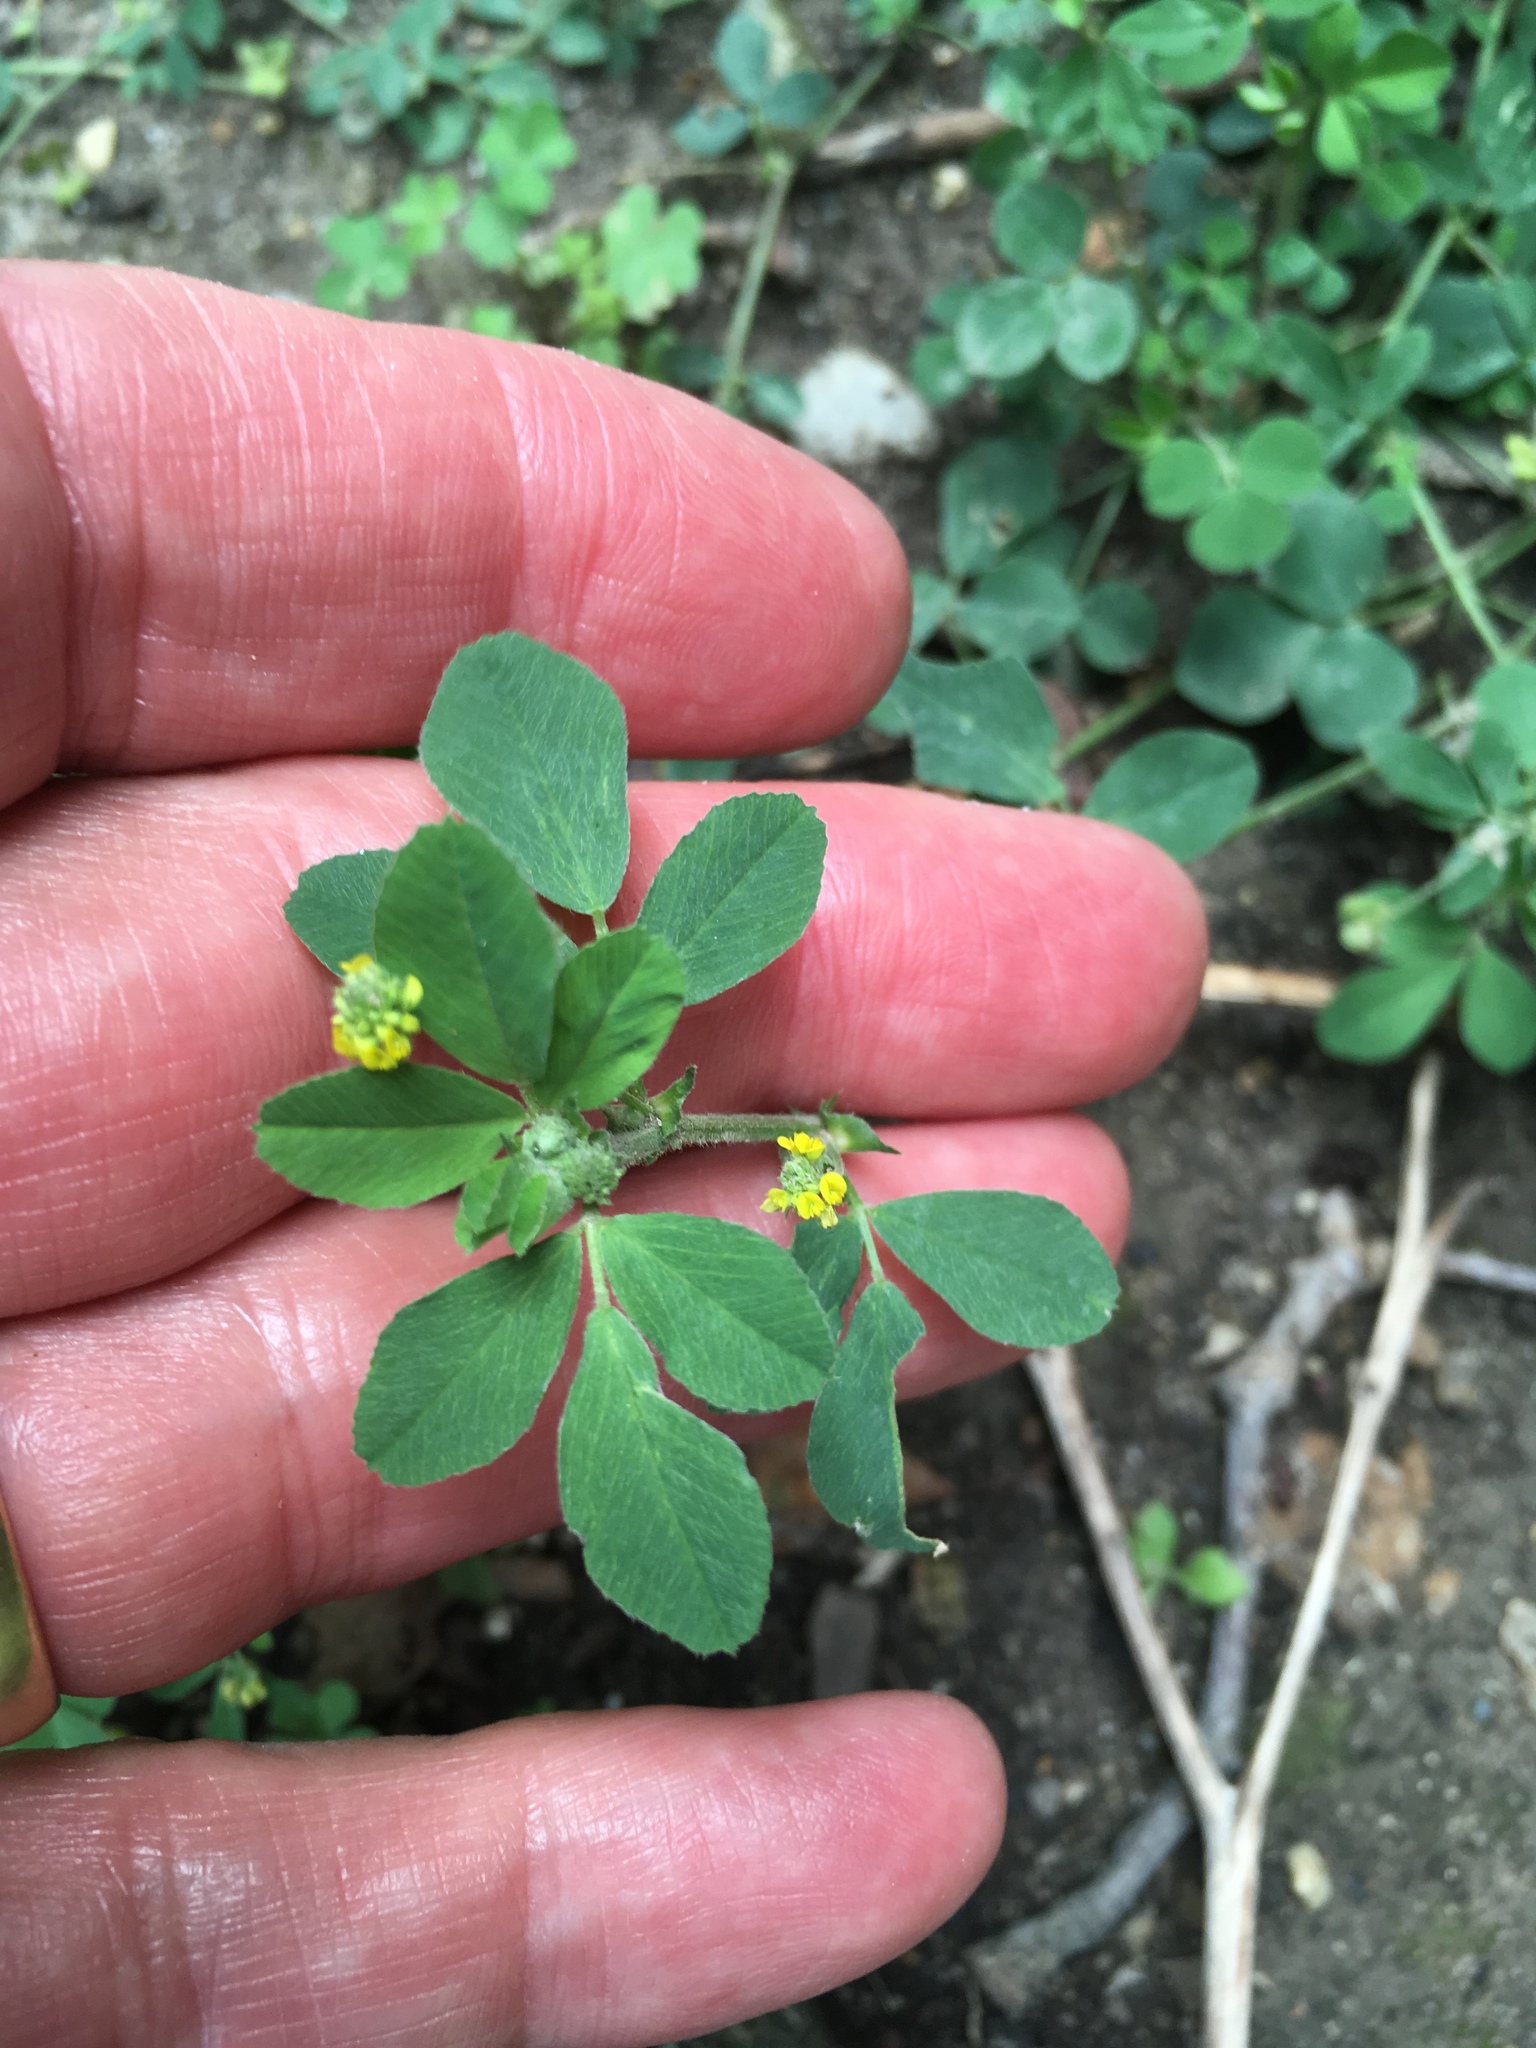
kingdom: Plantae
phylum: Tracheophyta
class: Magnoliopsida
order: Fabales
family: Fabaceae
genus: Medicago
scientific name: Medicago lupulina
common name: Black medick
